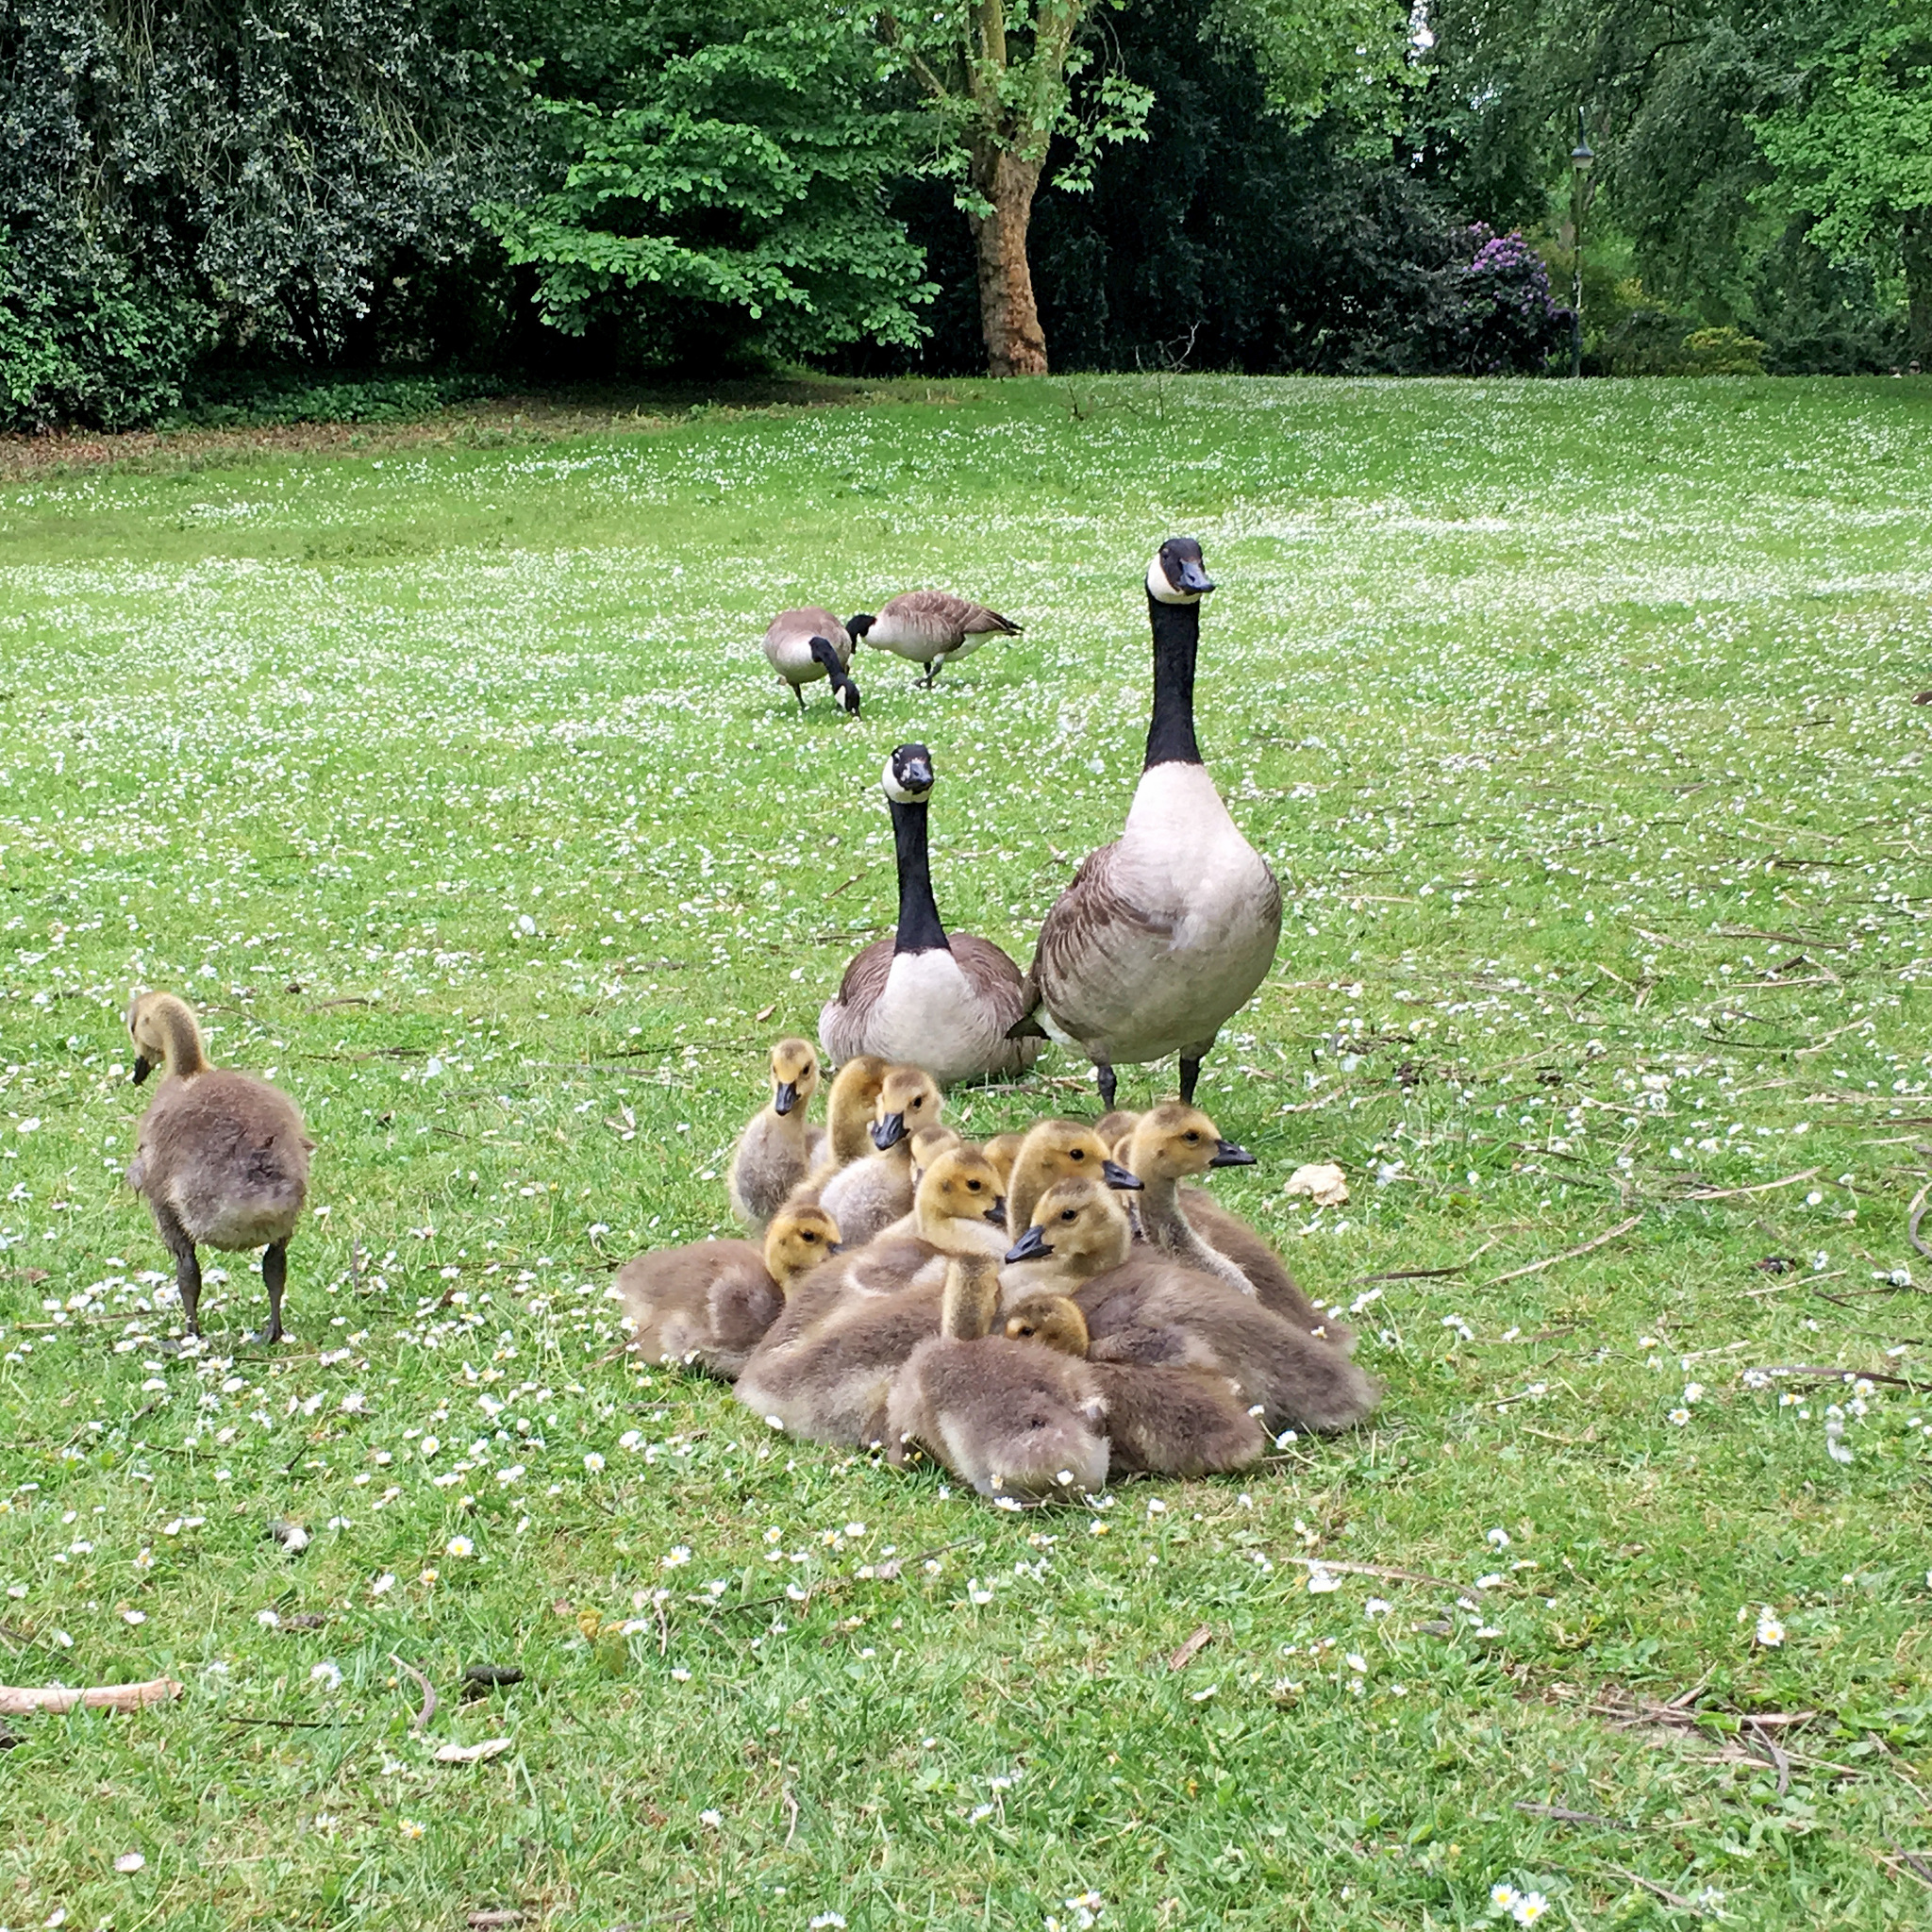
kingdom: Animalia
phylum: Chordata
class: Aves
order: Anseriformes
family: Anatidae
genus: Branta
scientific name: Branta canadensis
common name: Canada goose
